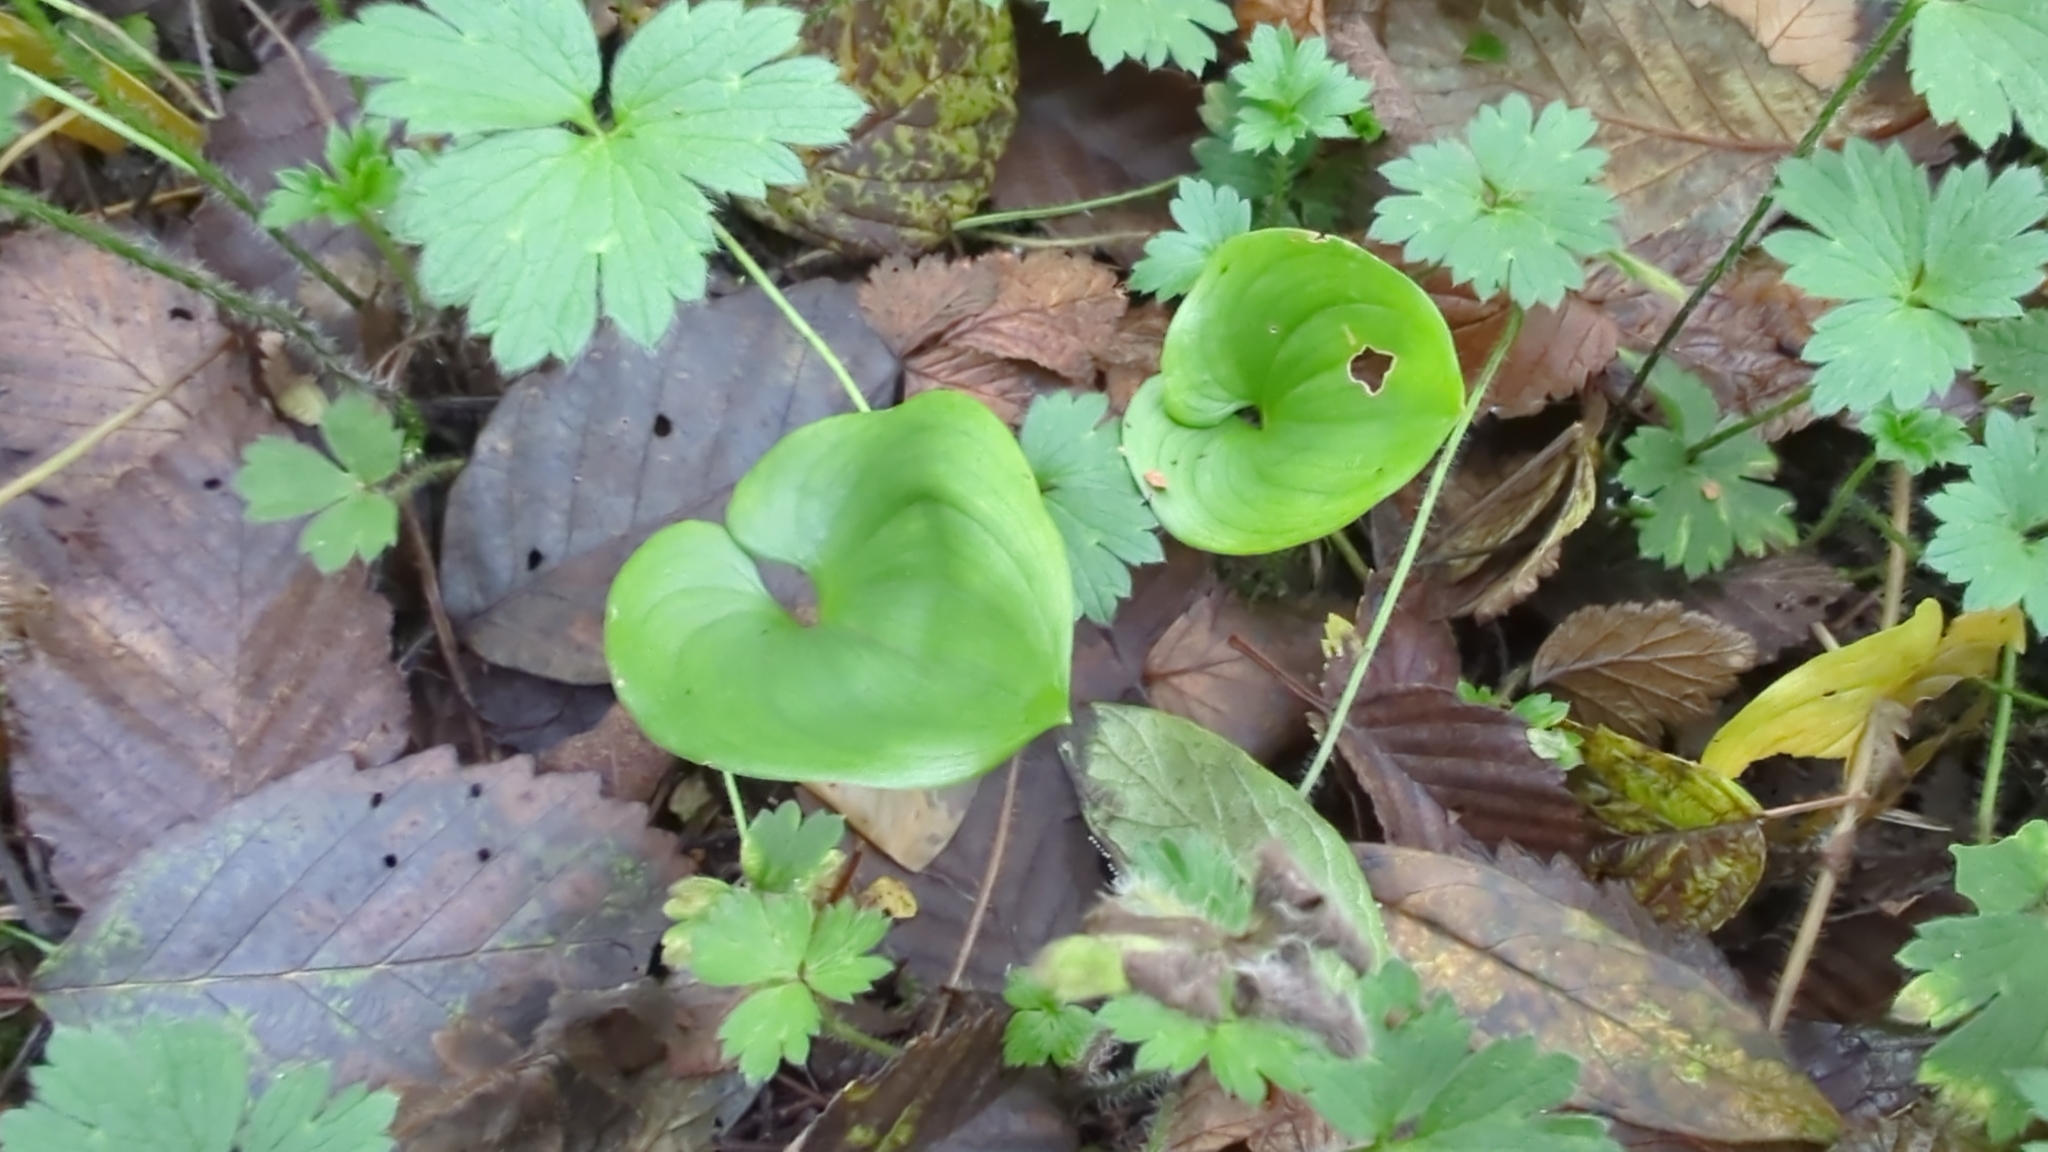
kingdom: Plantae
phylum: Tracheophyta
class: Liliopsida
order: Asparagales
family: Asparagaceae
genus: Maianthemum
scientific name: Maianthemum dilatatum
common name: False lily-of-the-valley
